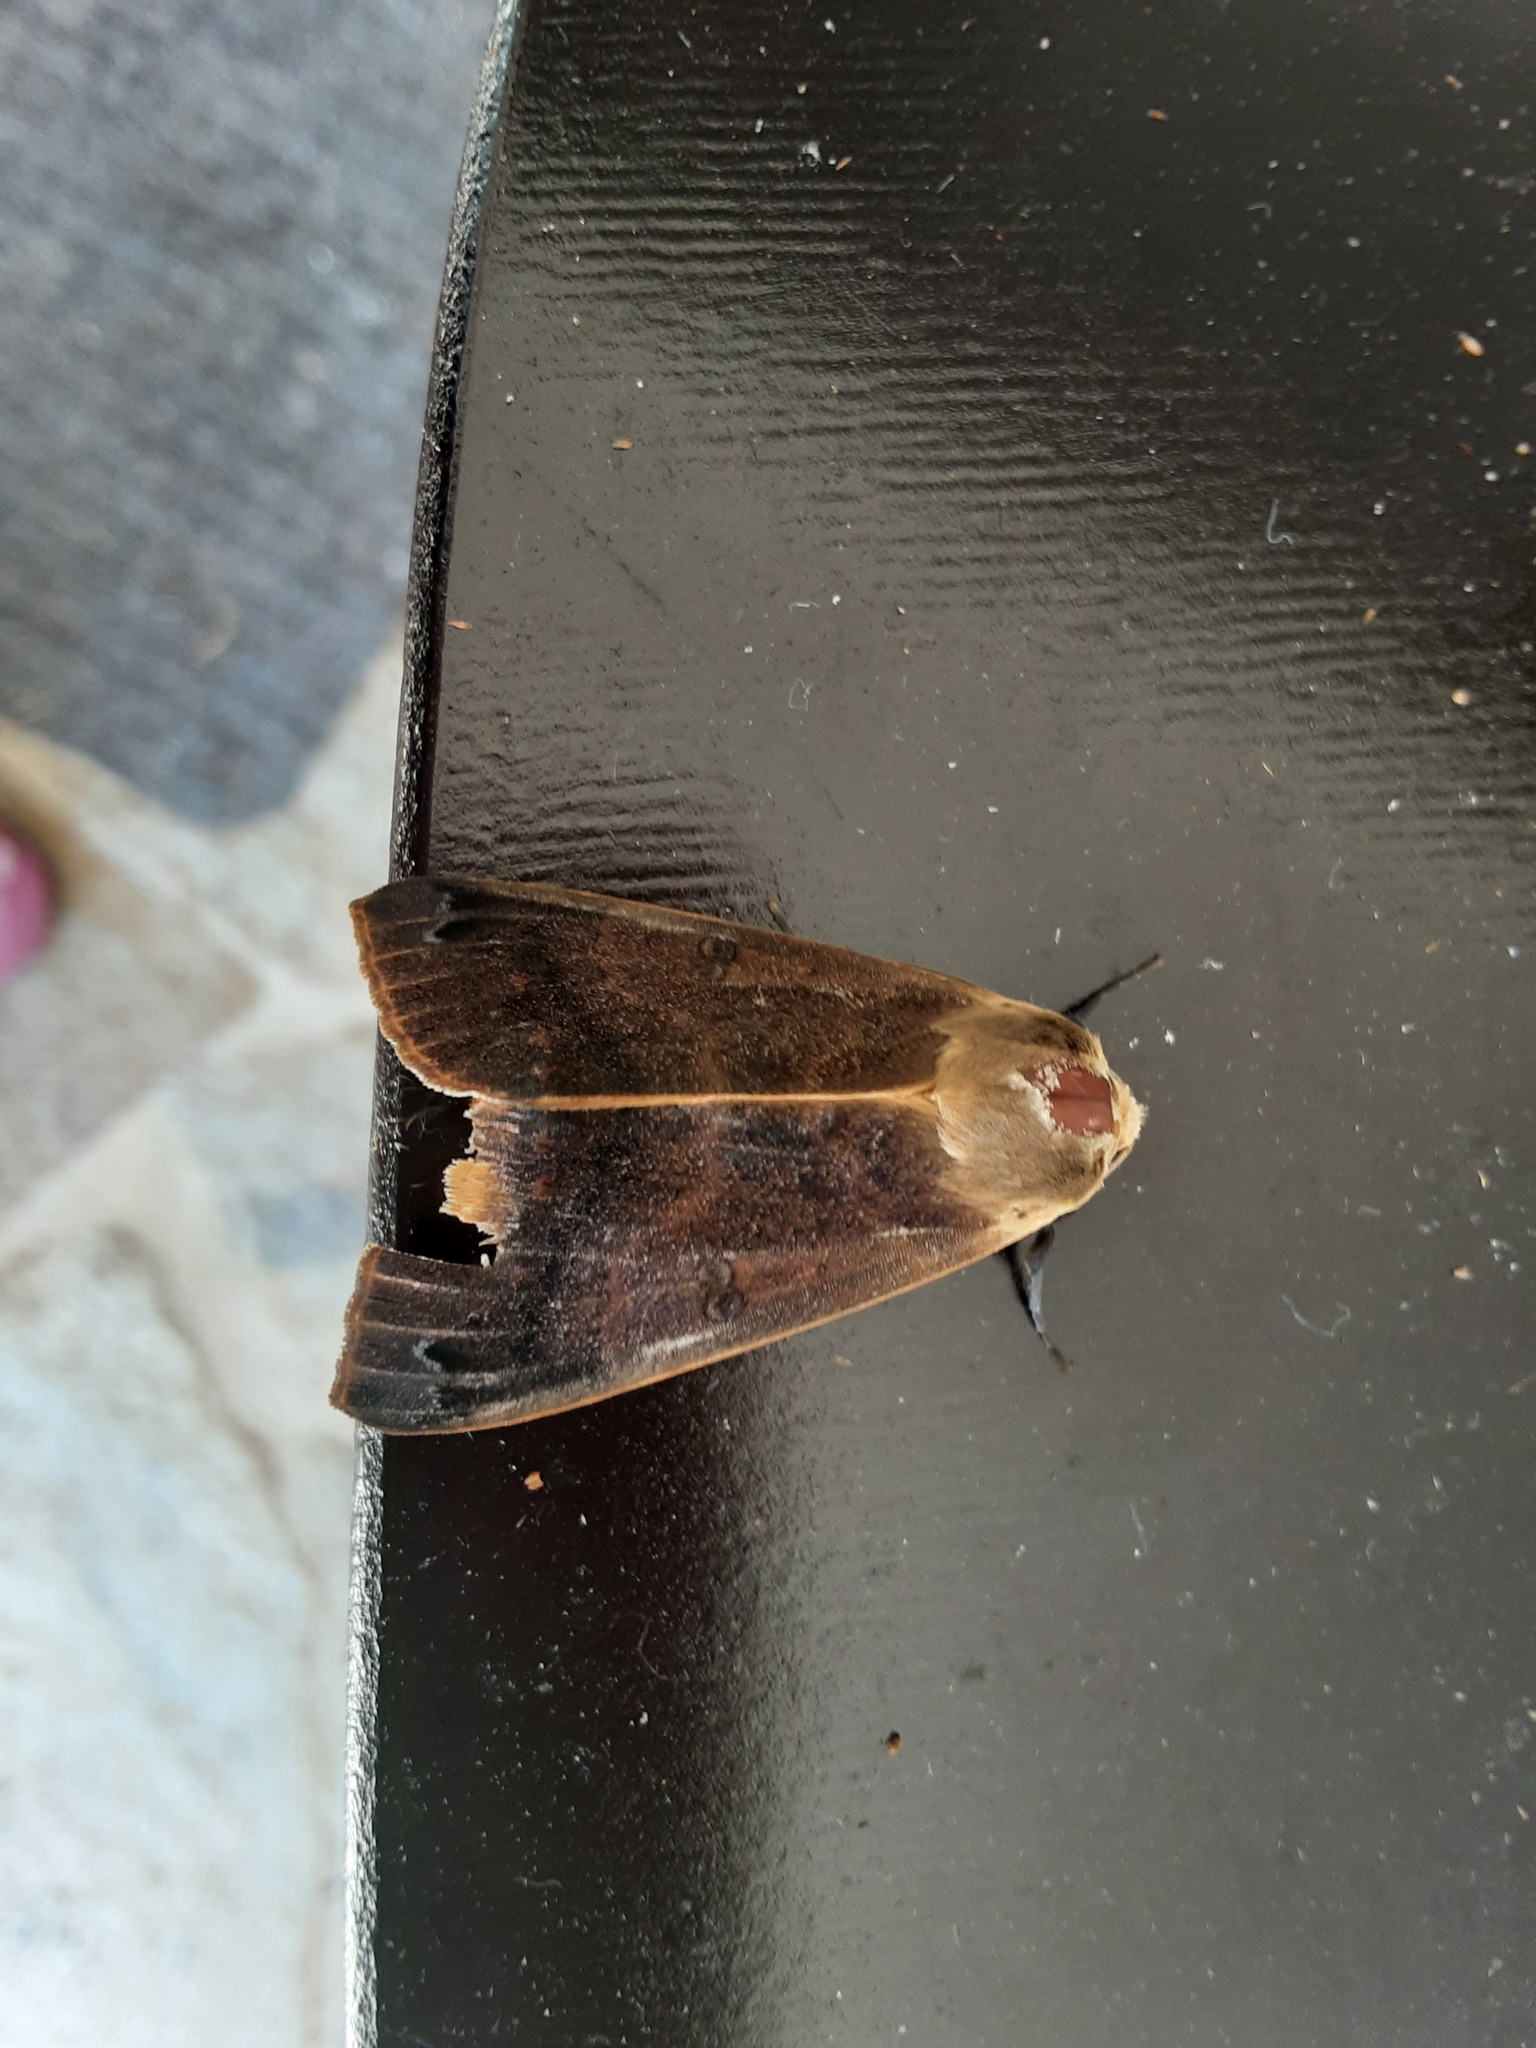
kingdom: Animalia
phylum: Arthropoda
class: Insecta
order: Lepidoptera
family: Erebidae
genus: Ophiusa
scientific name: Ophiusa disjungens
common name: Moth
